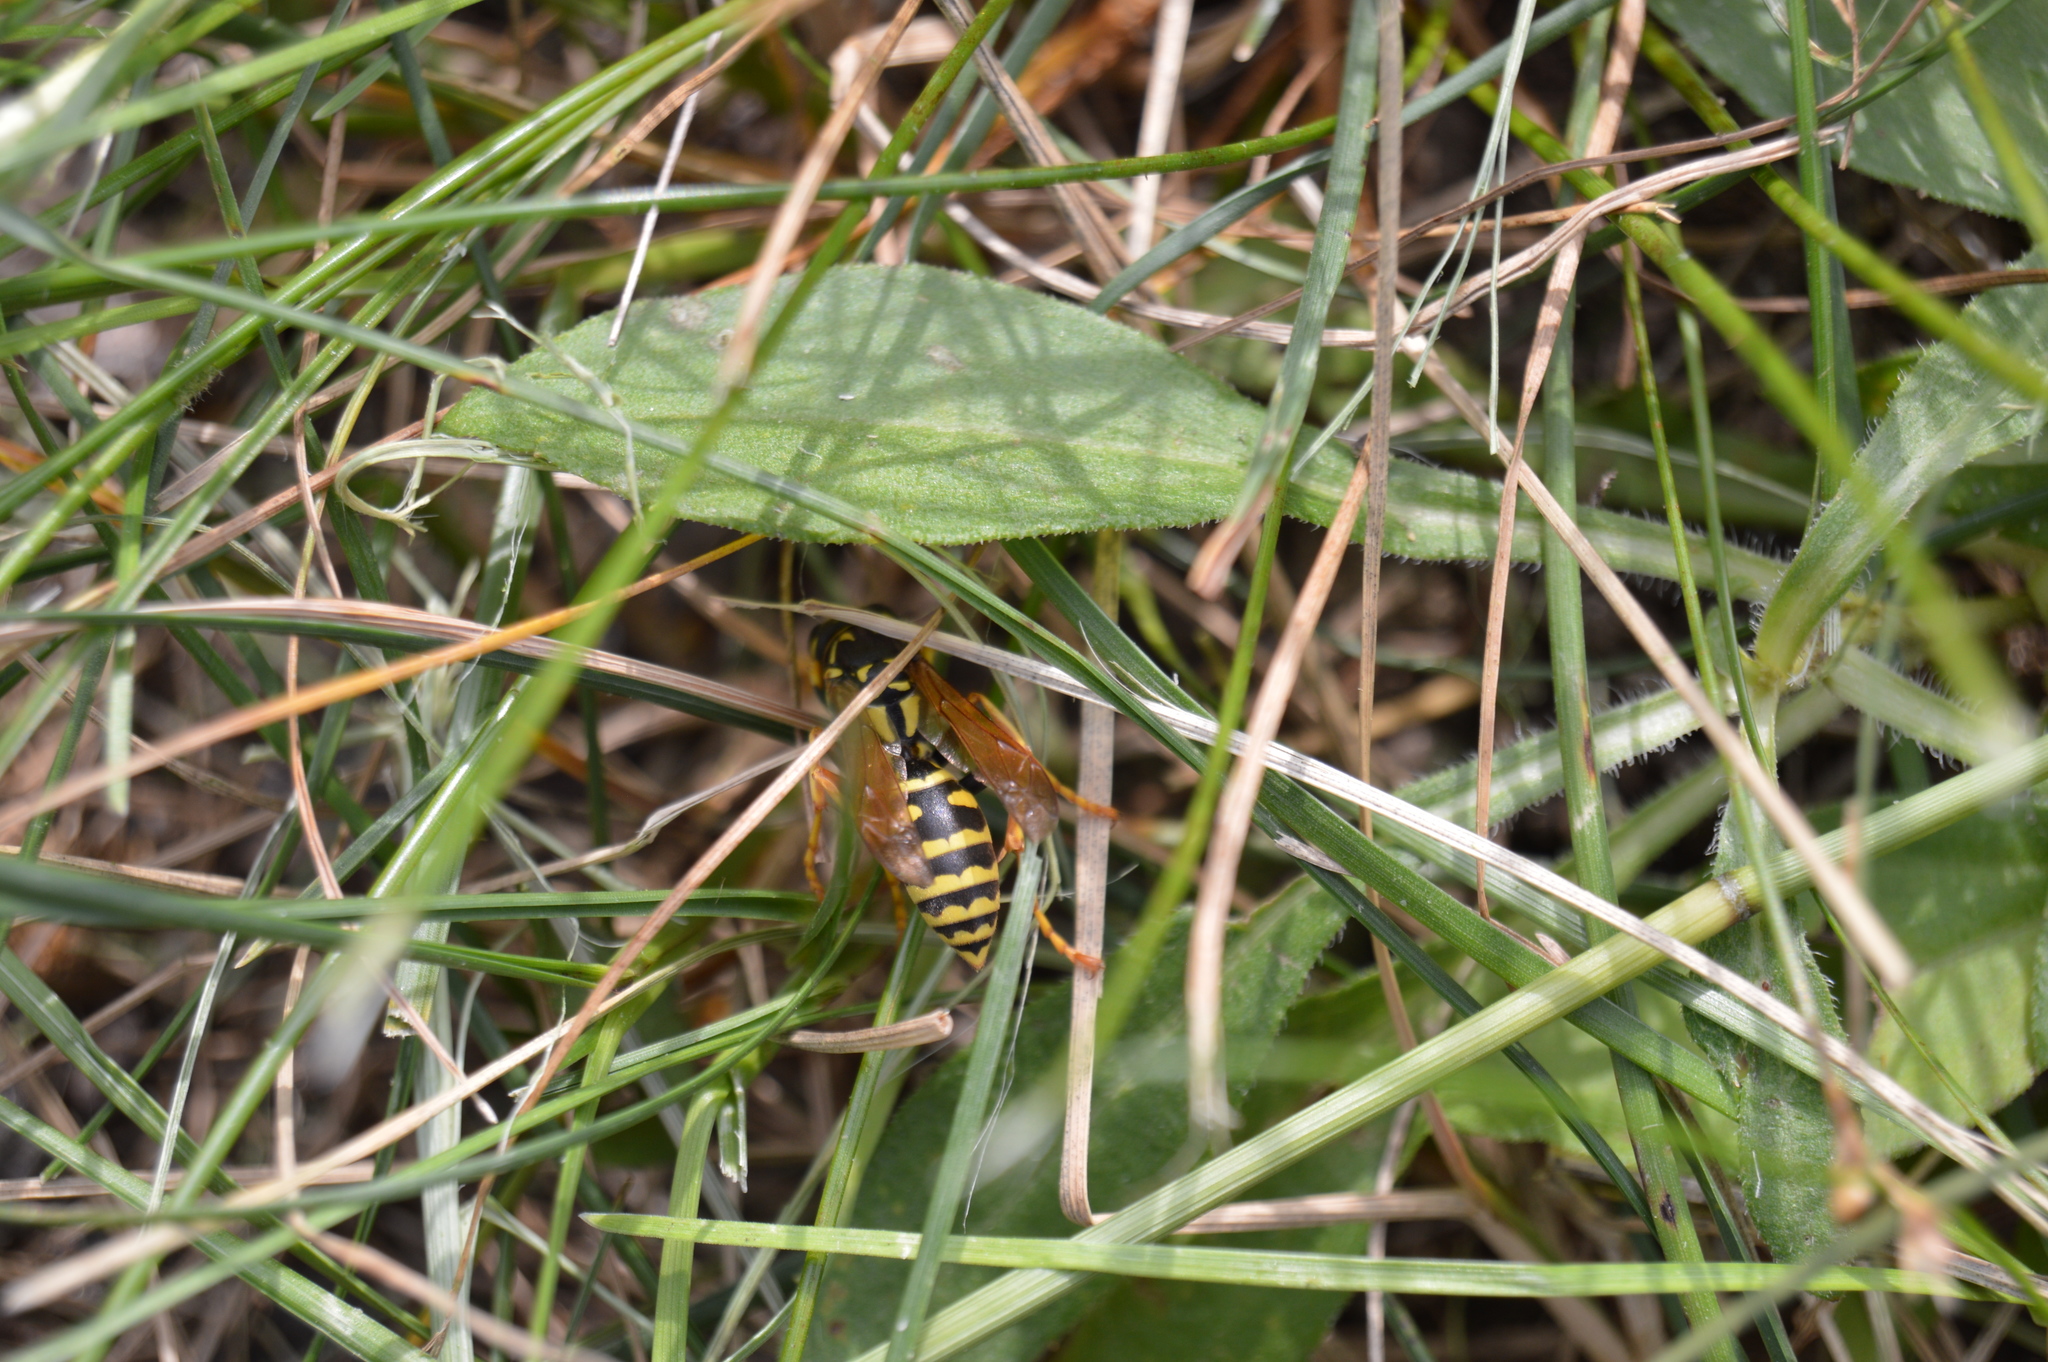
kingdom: Animalia
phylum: Arthropoda
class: Insecta
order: Hymenoptera
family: Eumenidae
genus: Polistes
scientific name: Polistes dominula
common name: Paper wasp
